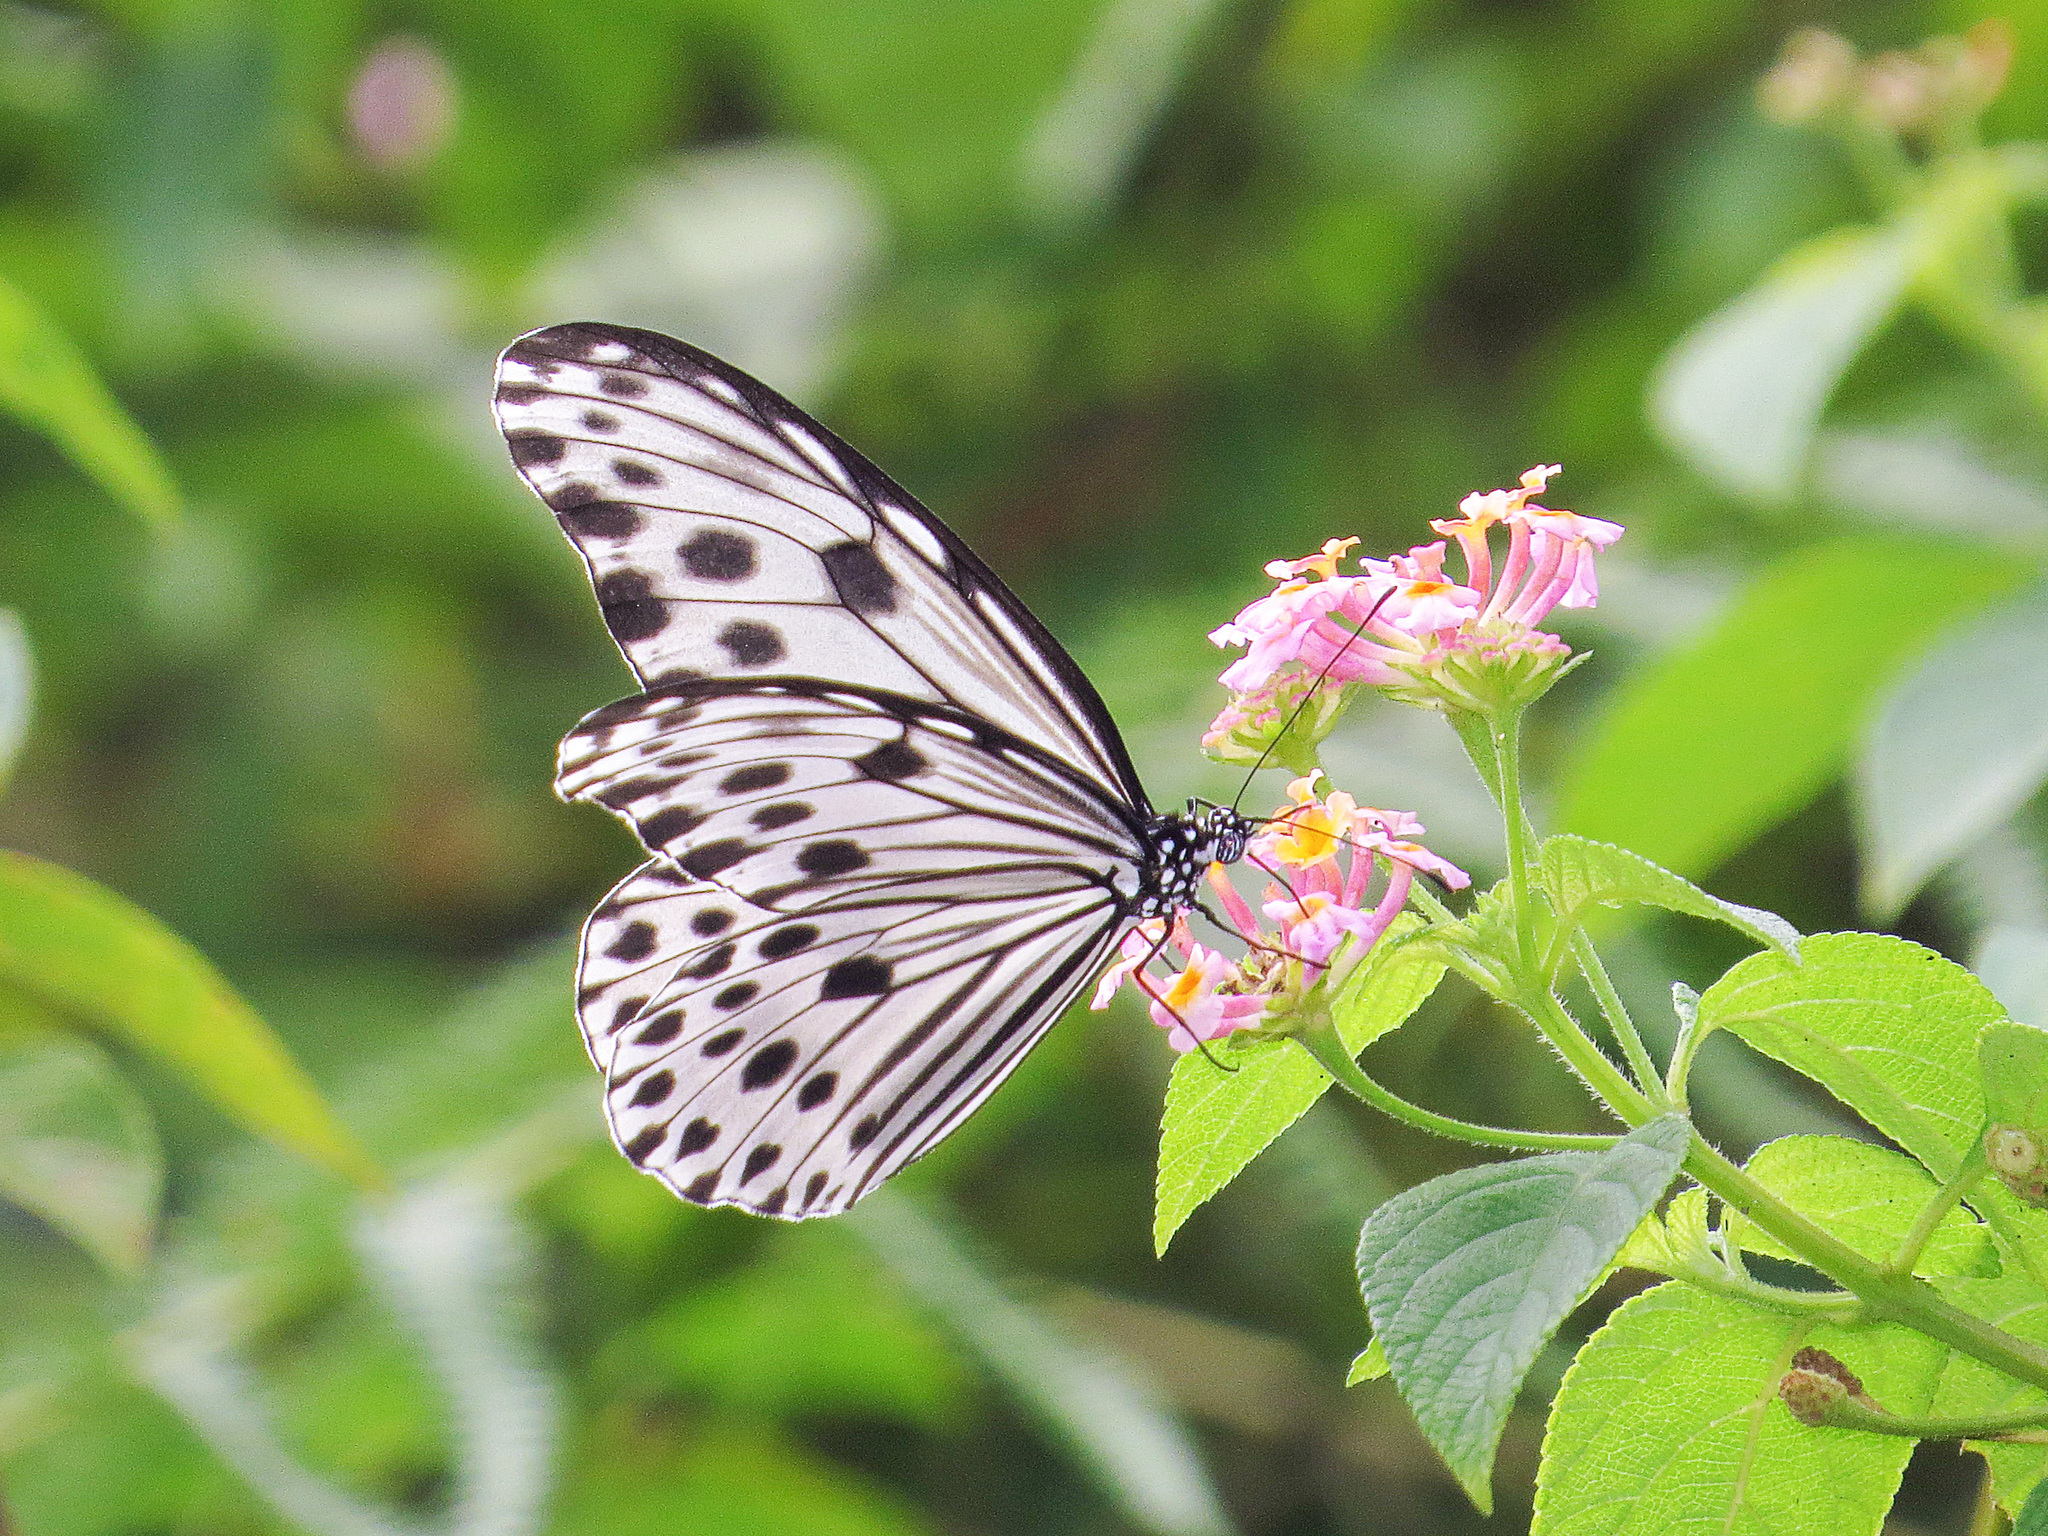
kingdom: Animalia
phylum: Arthropoda
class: Insecta
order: Lepidoptera
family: Nymphalidae
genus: Ideopsis
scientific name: Ideopsis gaura
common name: Smaller wood nymph
